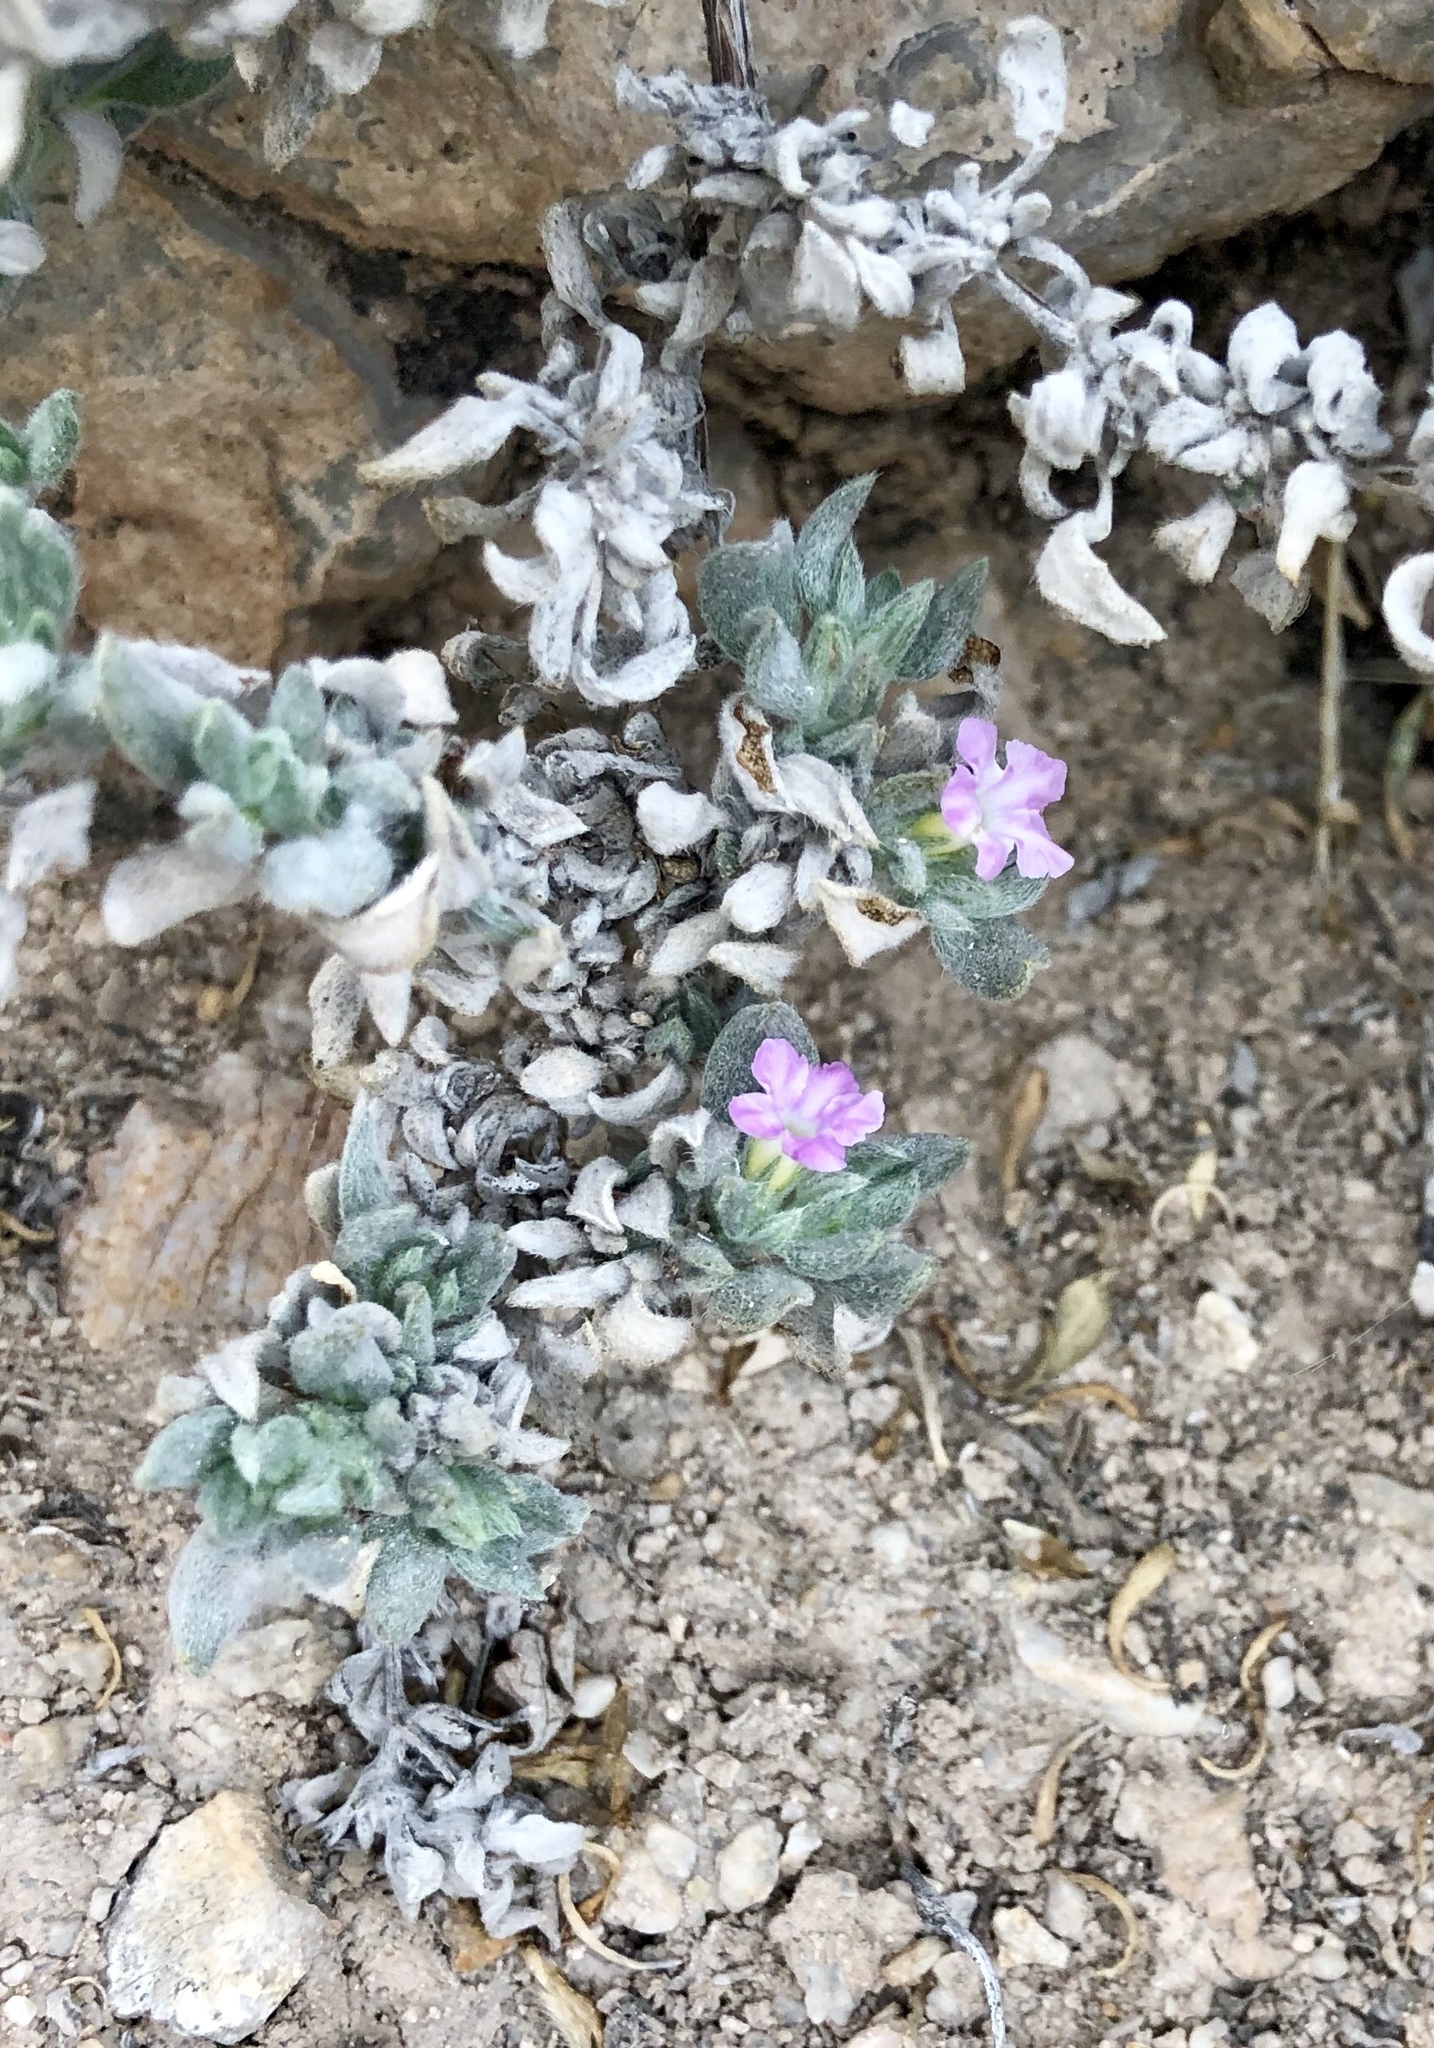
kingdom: Plantae
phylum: Tracheophyta
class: Magnoliopsida
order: Boraginales
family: Ehretiaceae
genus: Tiquilia
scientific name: Tiquilia canescens
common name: Hairy tiquilia
